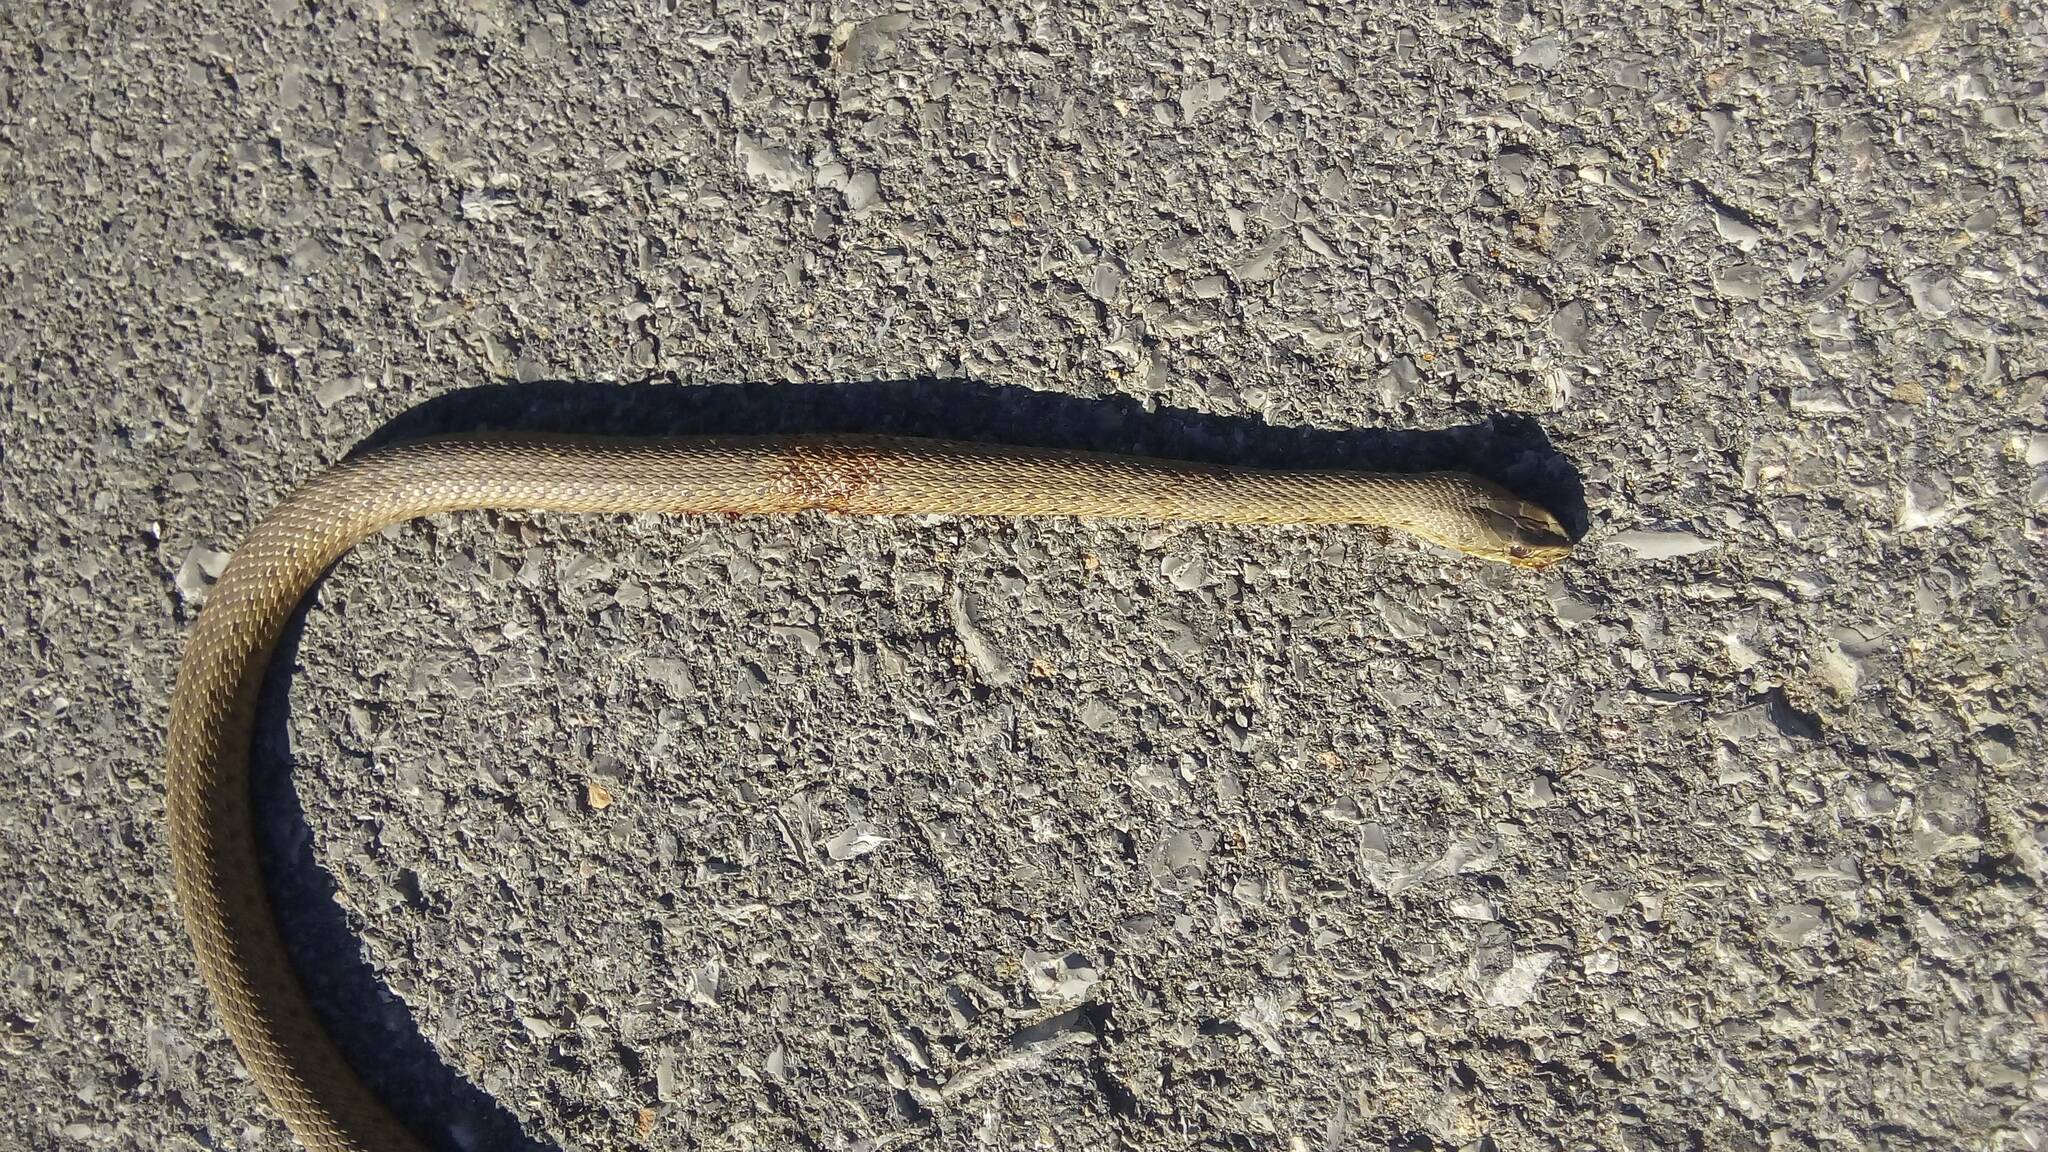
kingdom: Animalia
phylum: Chordata
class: Squamata
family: Psammophiidae
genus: Malpolon
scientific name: Malpolon insignitus
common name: Eastern montpellier snake
